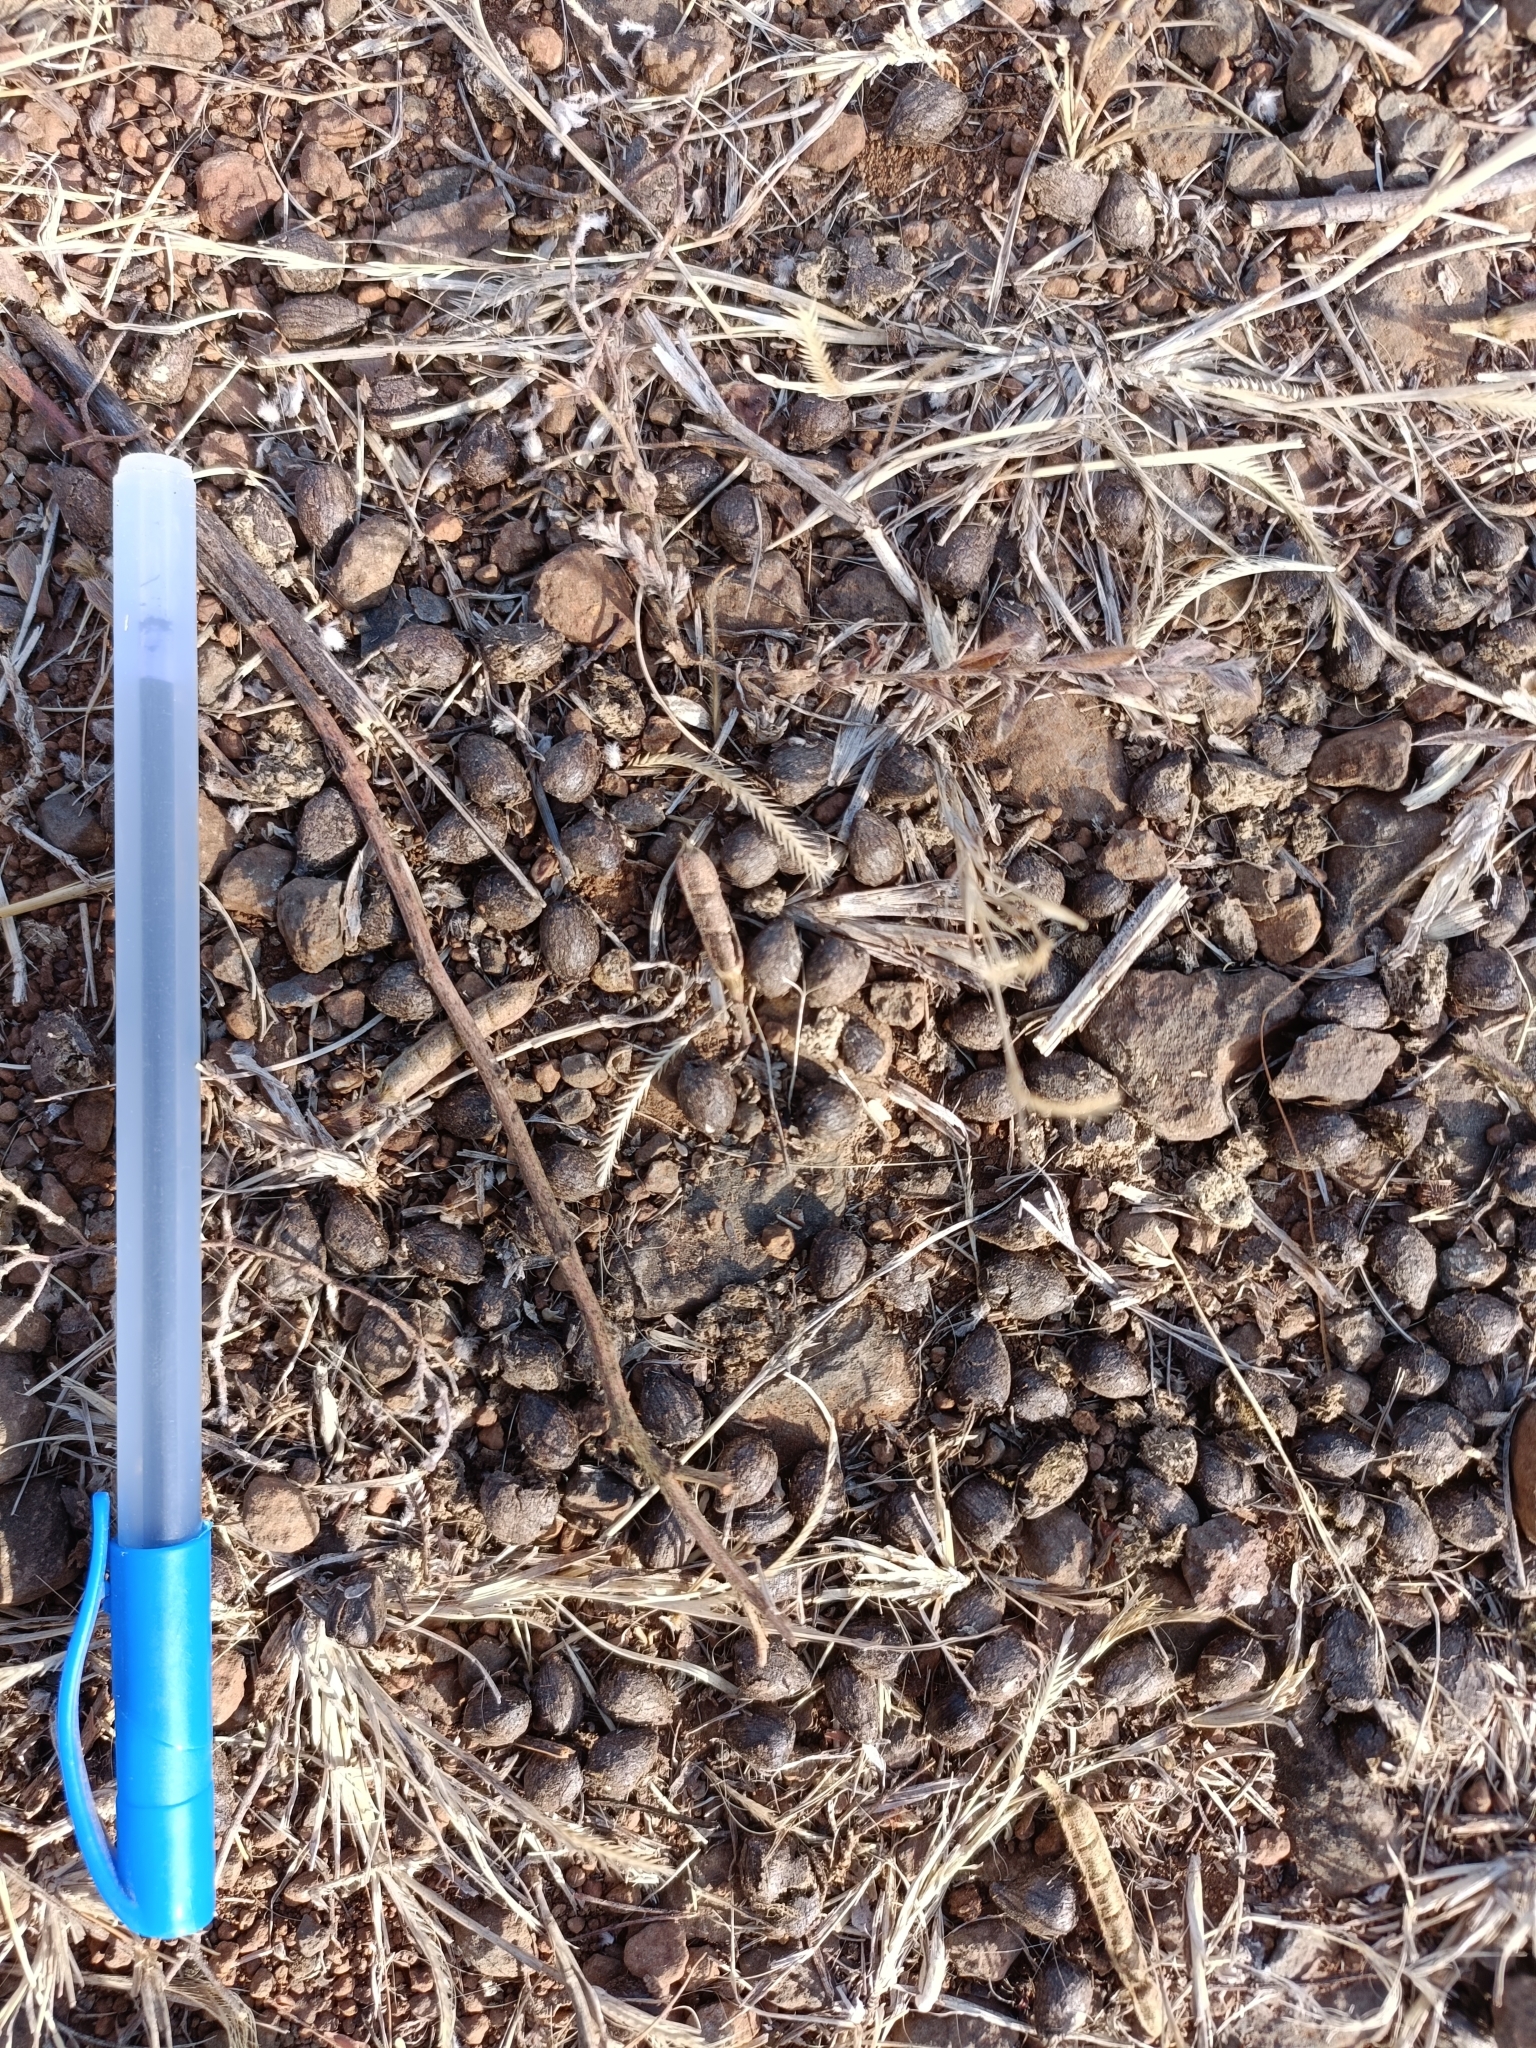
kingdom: Animalia
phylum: Chordata
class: Mammalia
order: Artiodactyla
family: Bovidae
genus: Gazella
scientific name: Gazella bennettii
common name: Indian gazelle
